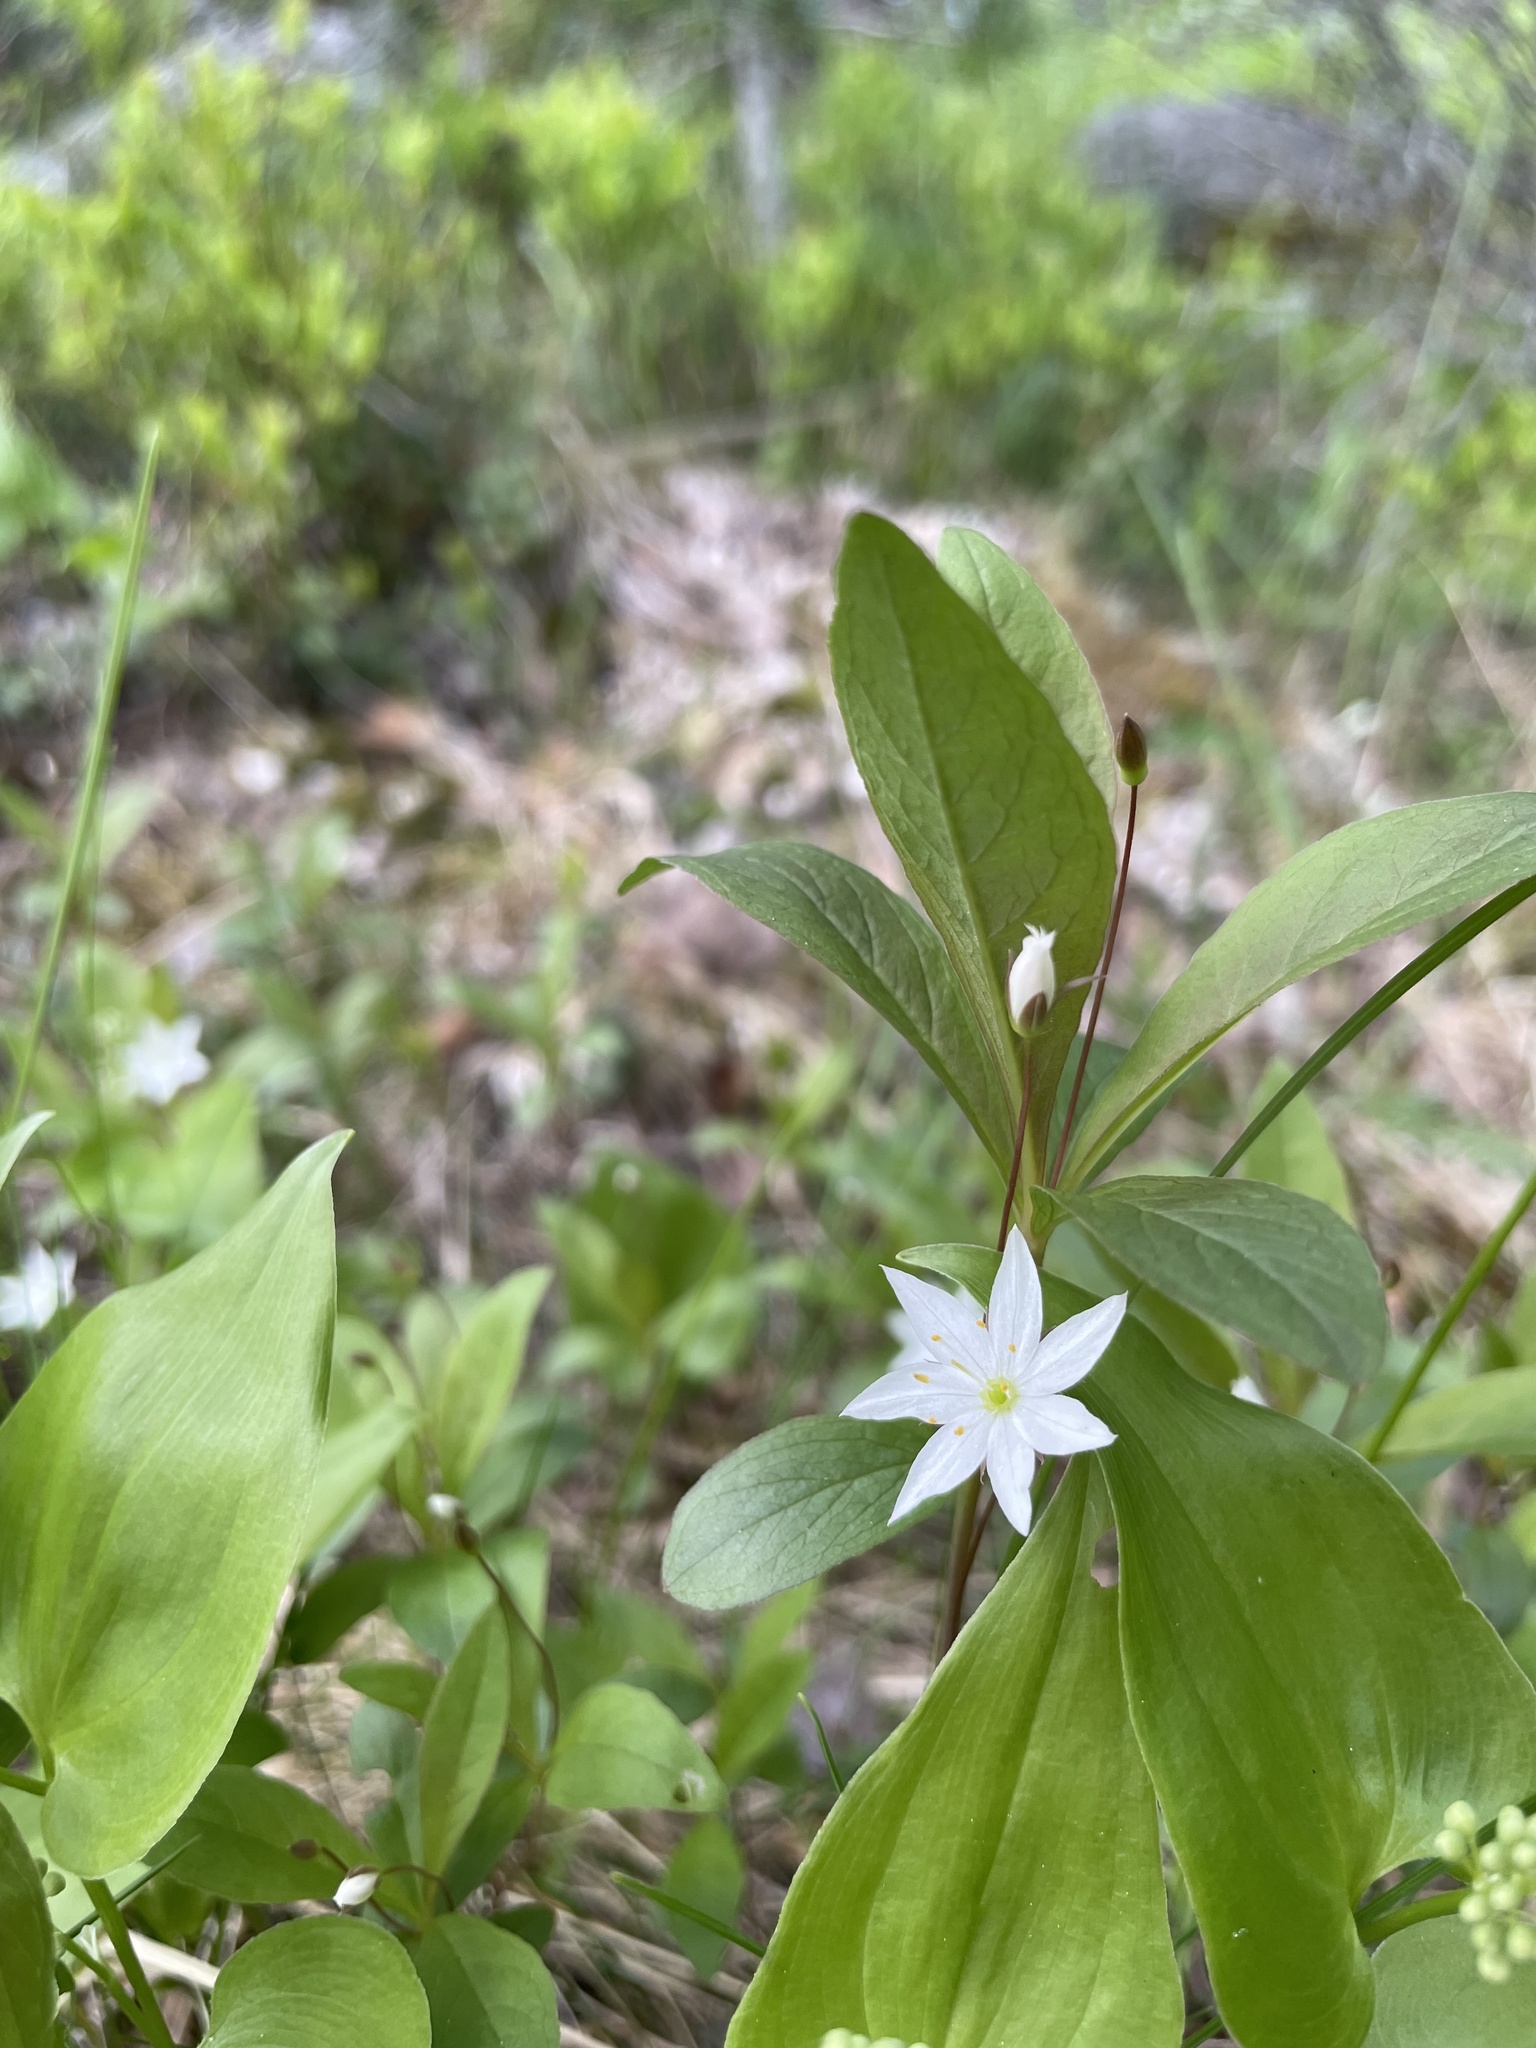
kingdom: Plantae
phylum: Tracheophyta
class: Magnoliopsida
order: Ericales
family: Primulaceae
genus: Lysimachia
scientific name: Lysimachia europaea
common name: Arctic starflower
